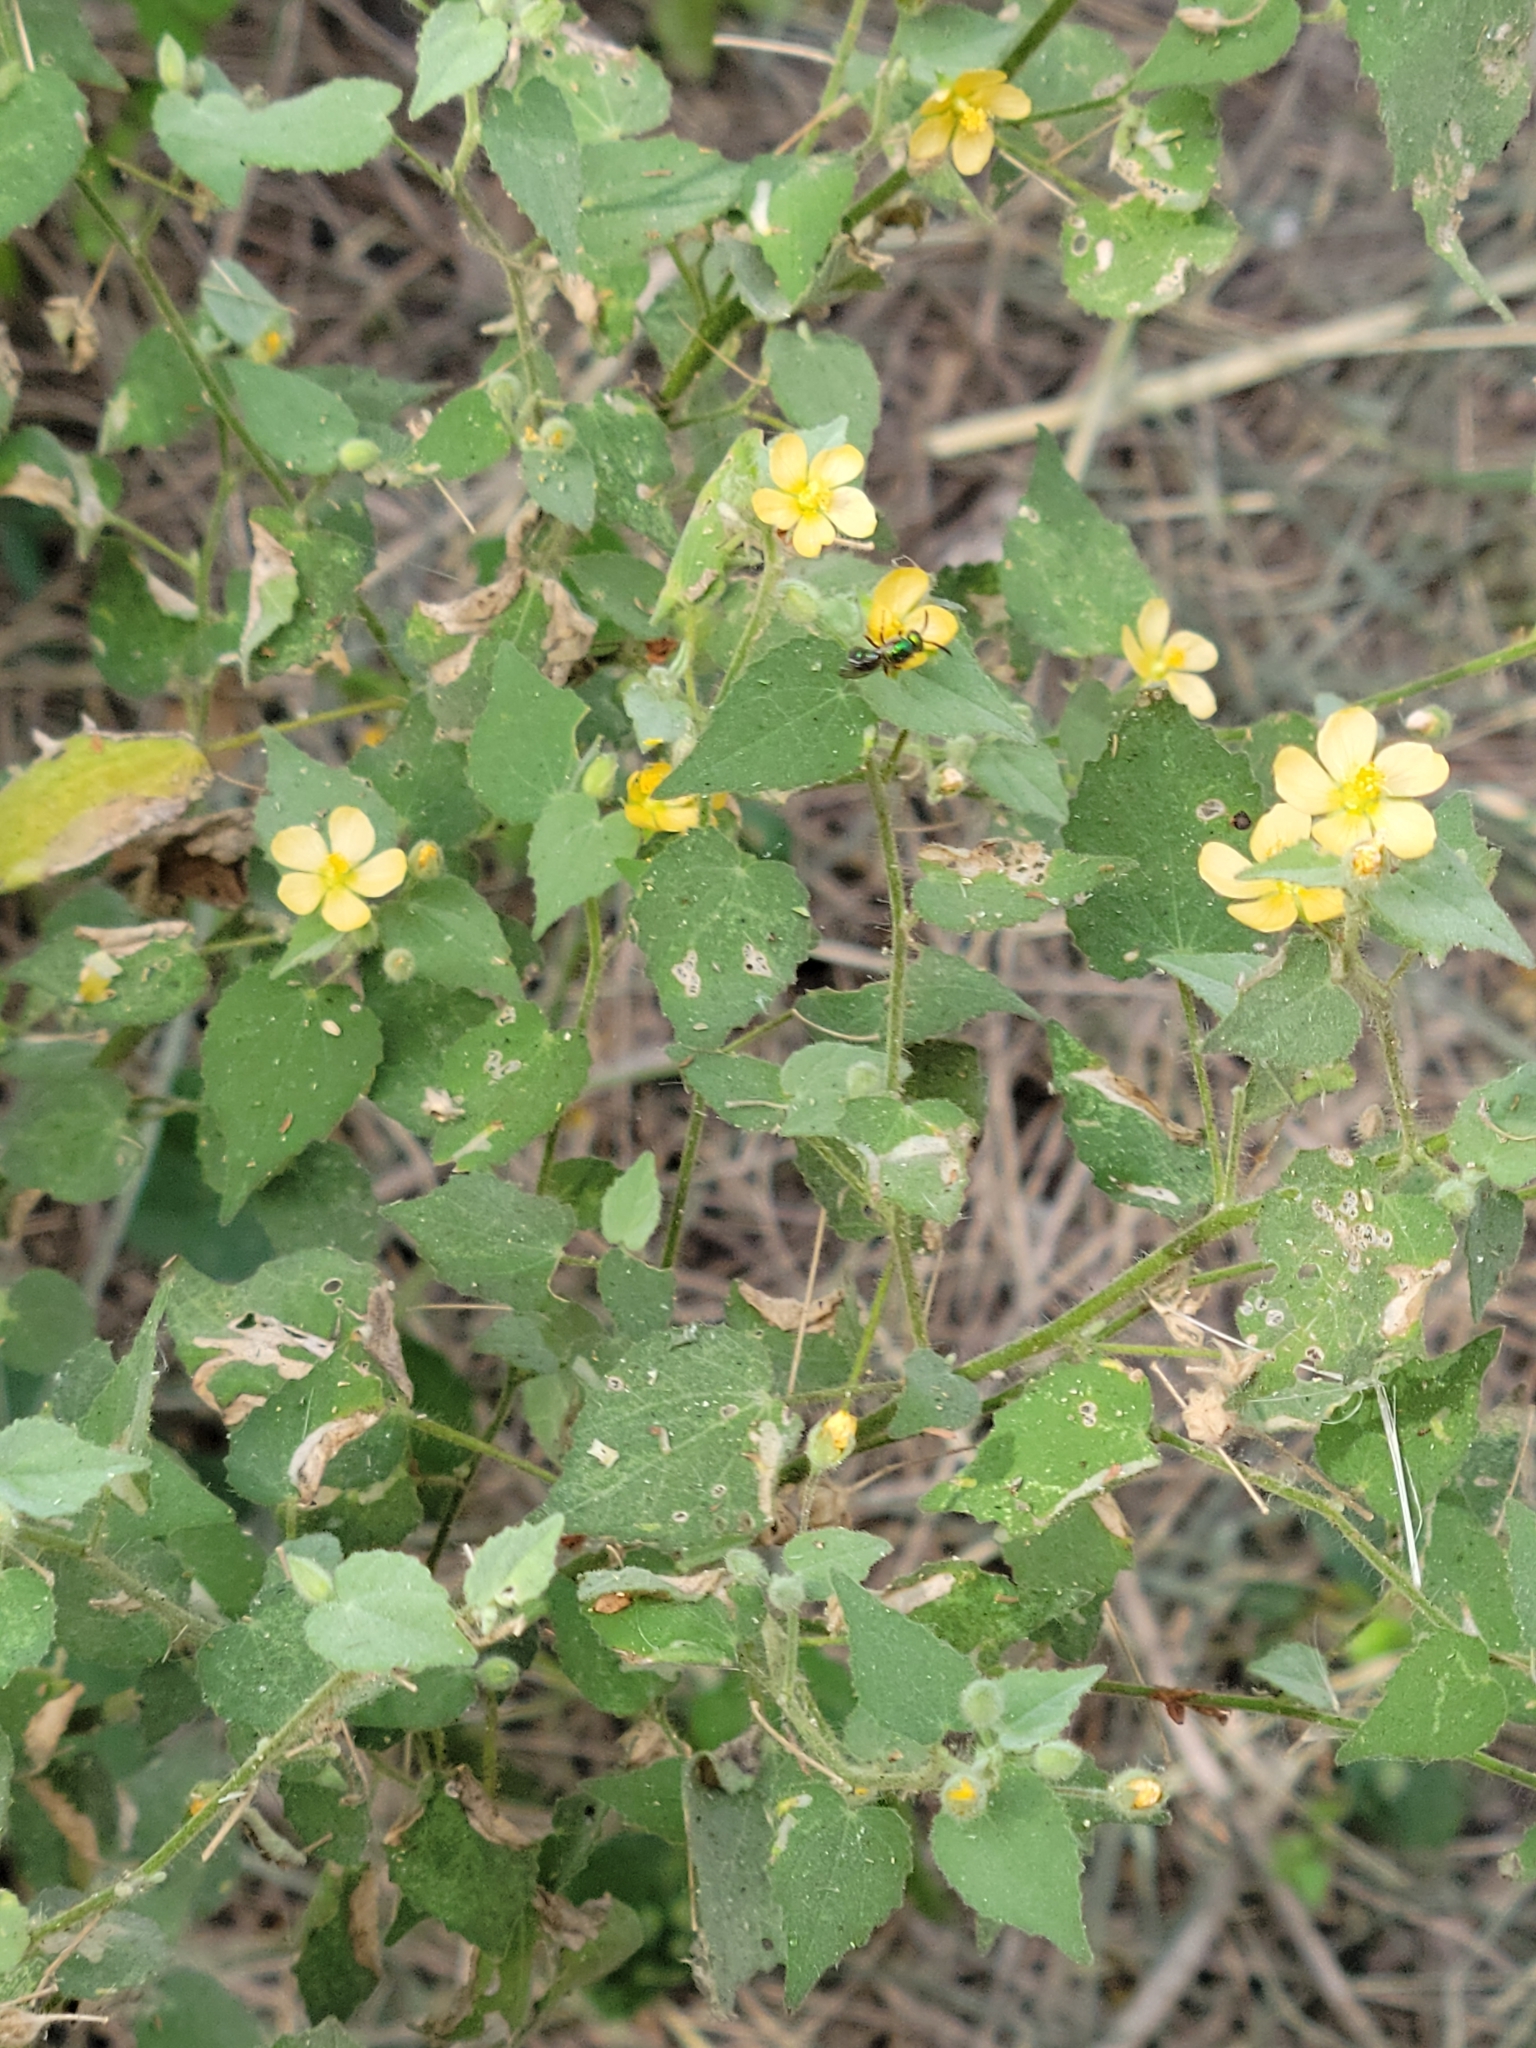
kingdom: Plantae
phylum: Tracheophyta
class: Magnoliopsida
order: Malvales
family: Malvaceae
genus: Abutilon
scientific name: Abutilon viscosum
